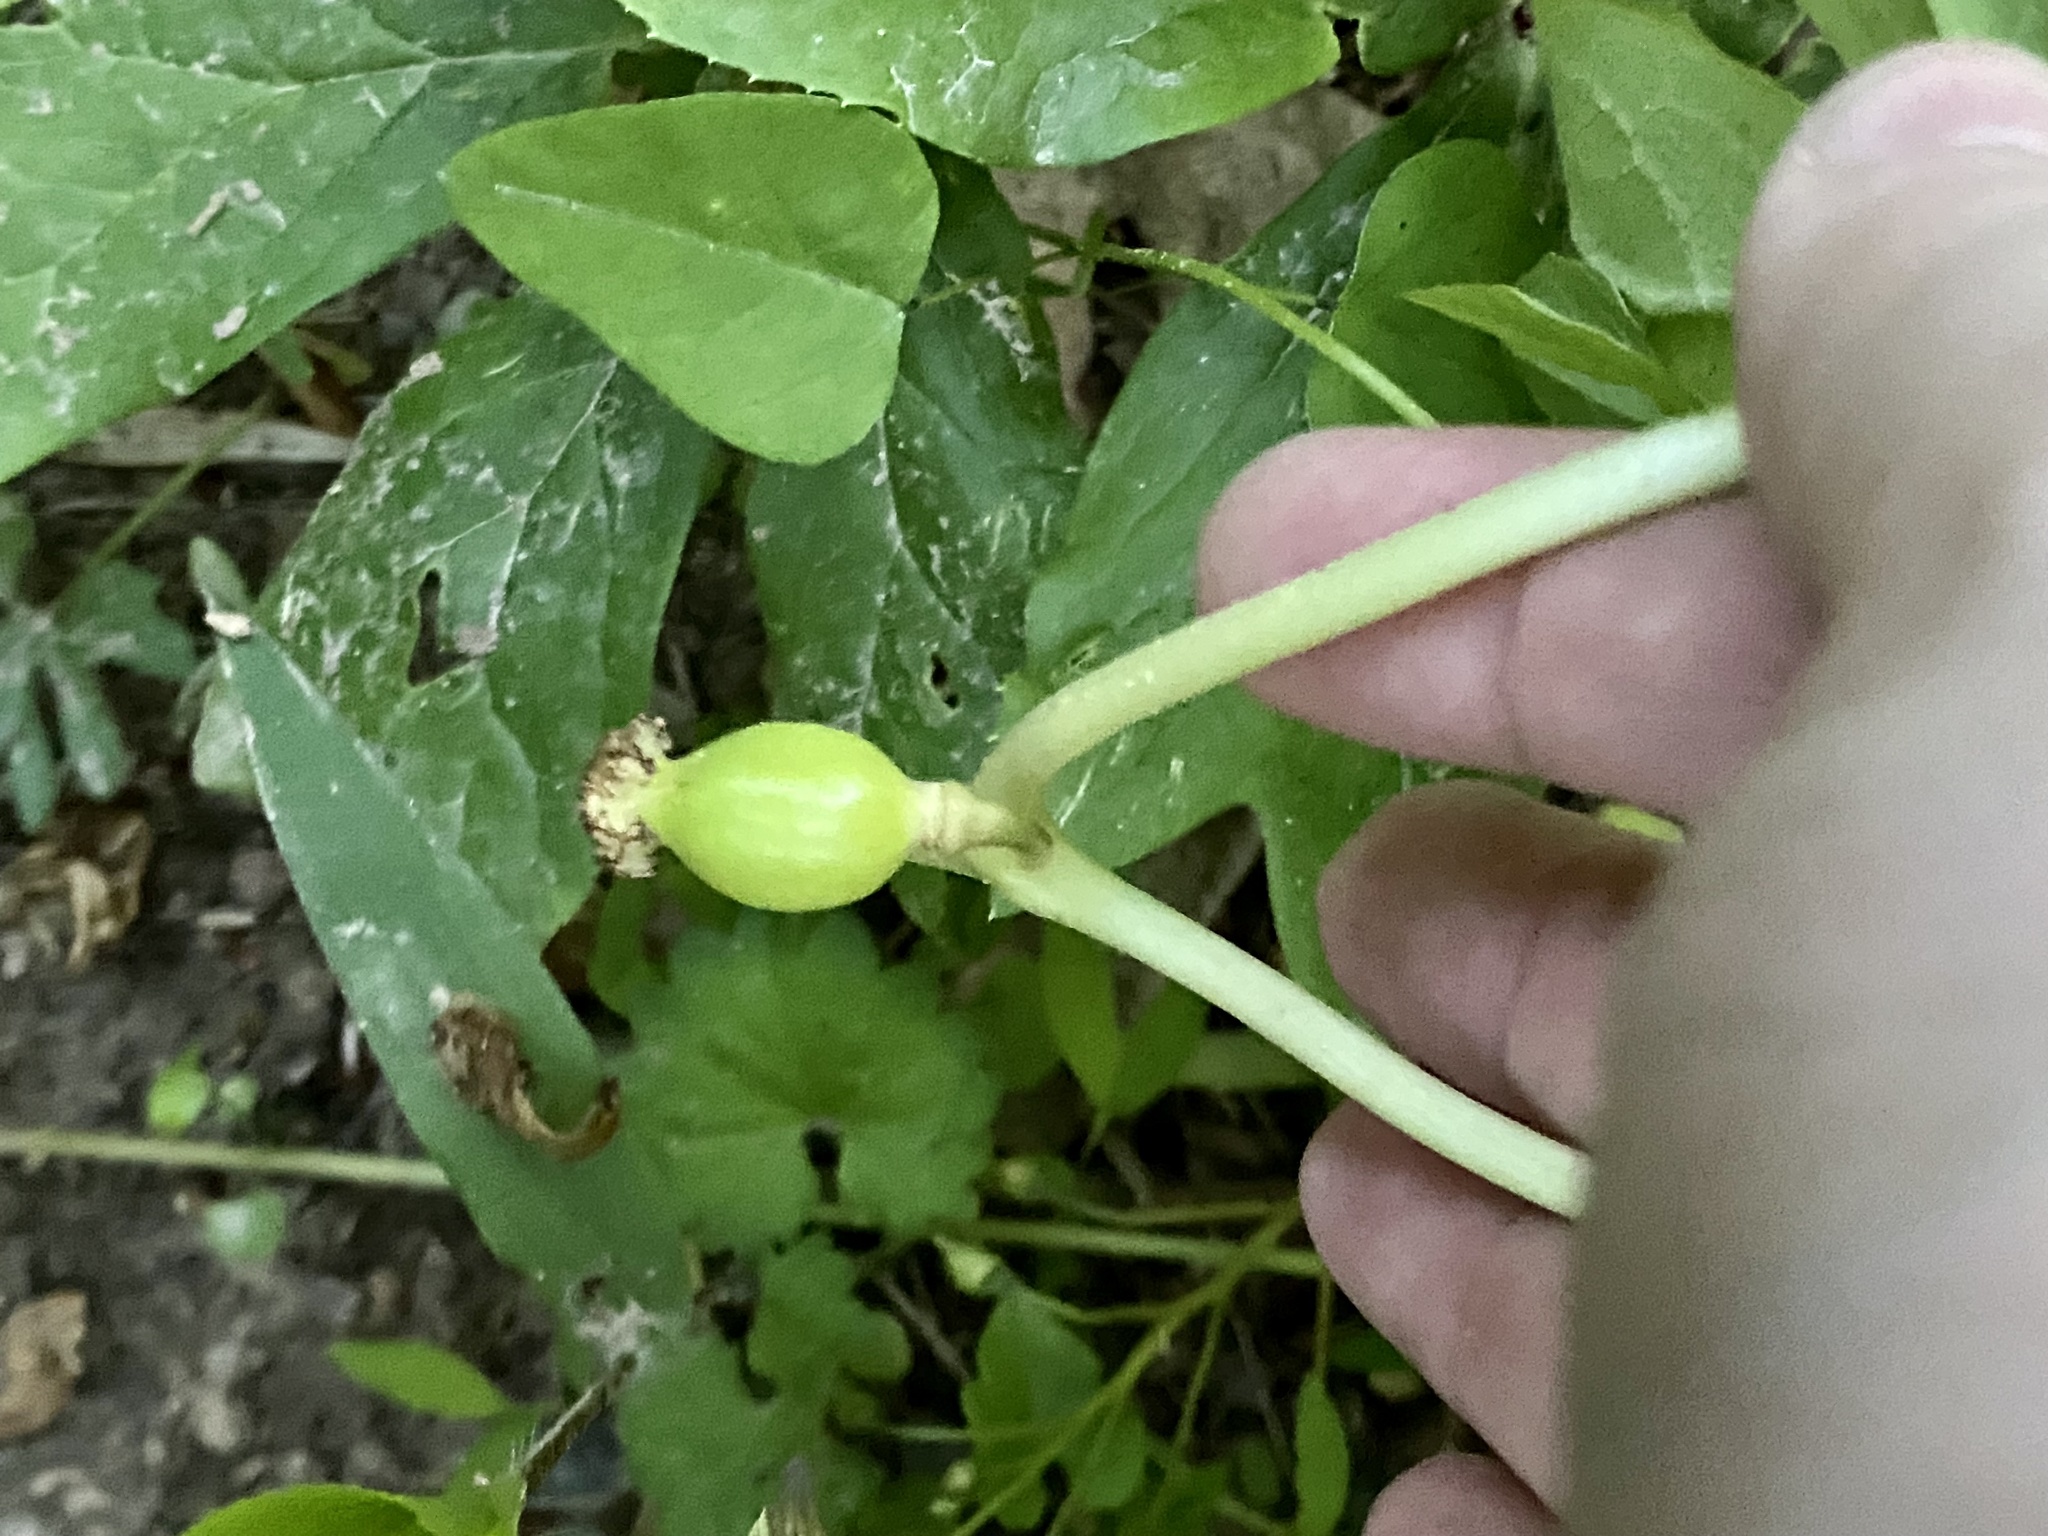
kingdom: Plantae
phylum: Tracheophyta
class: Magnoliopsida
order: Ranunculales
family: Berberidaceae
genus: Podophyllum
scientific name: Podophyllum peltatum
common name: Wild mandrake
